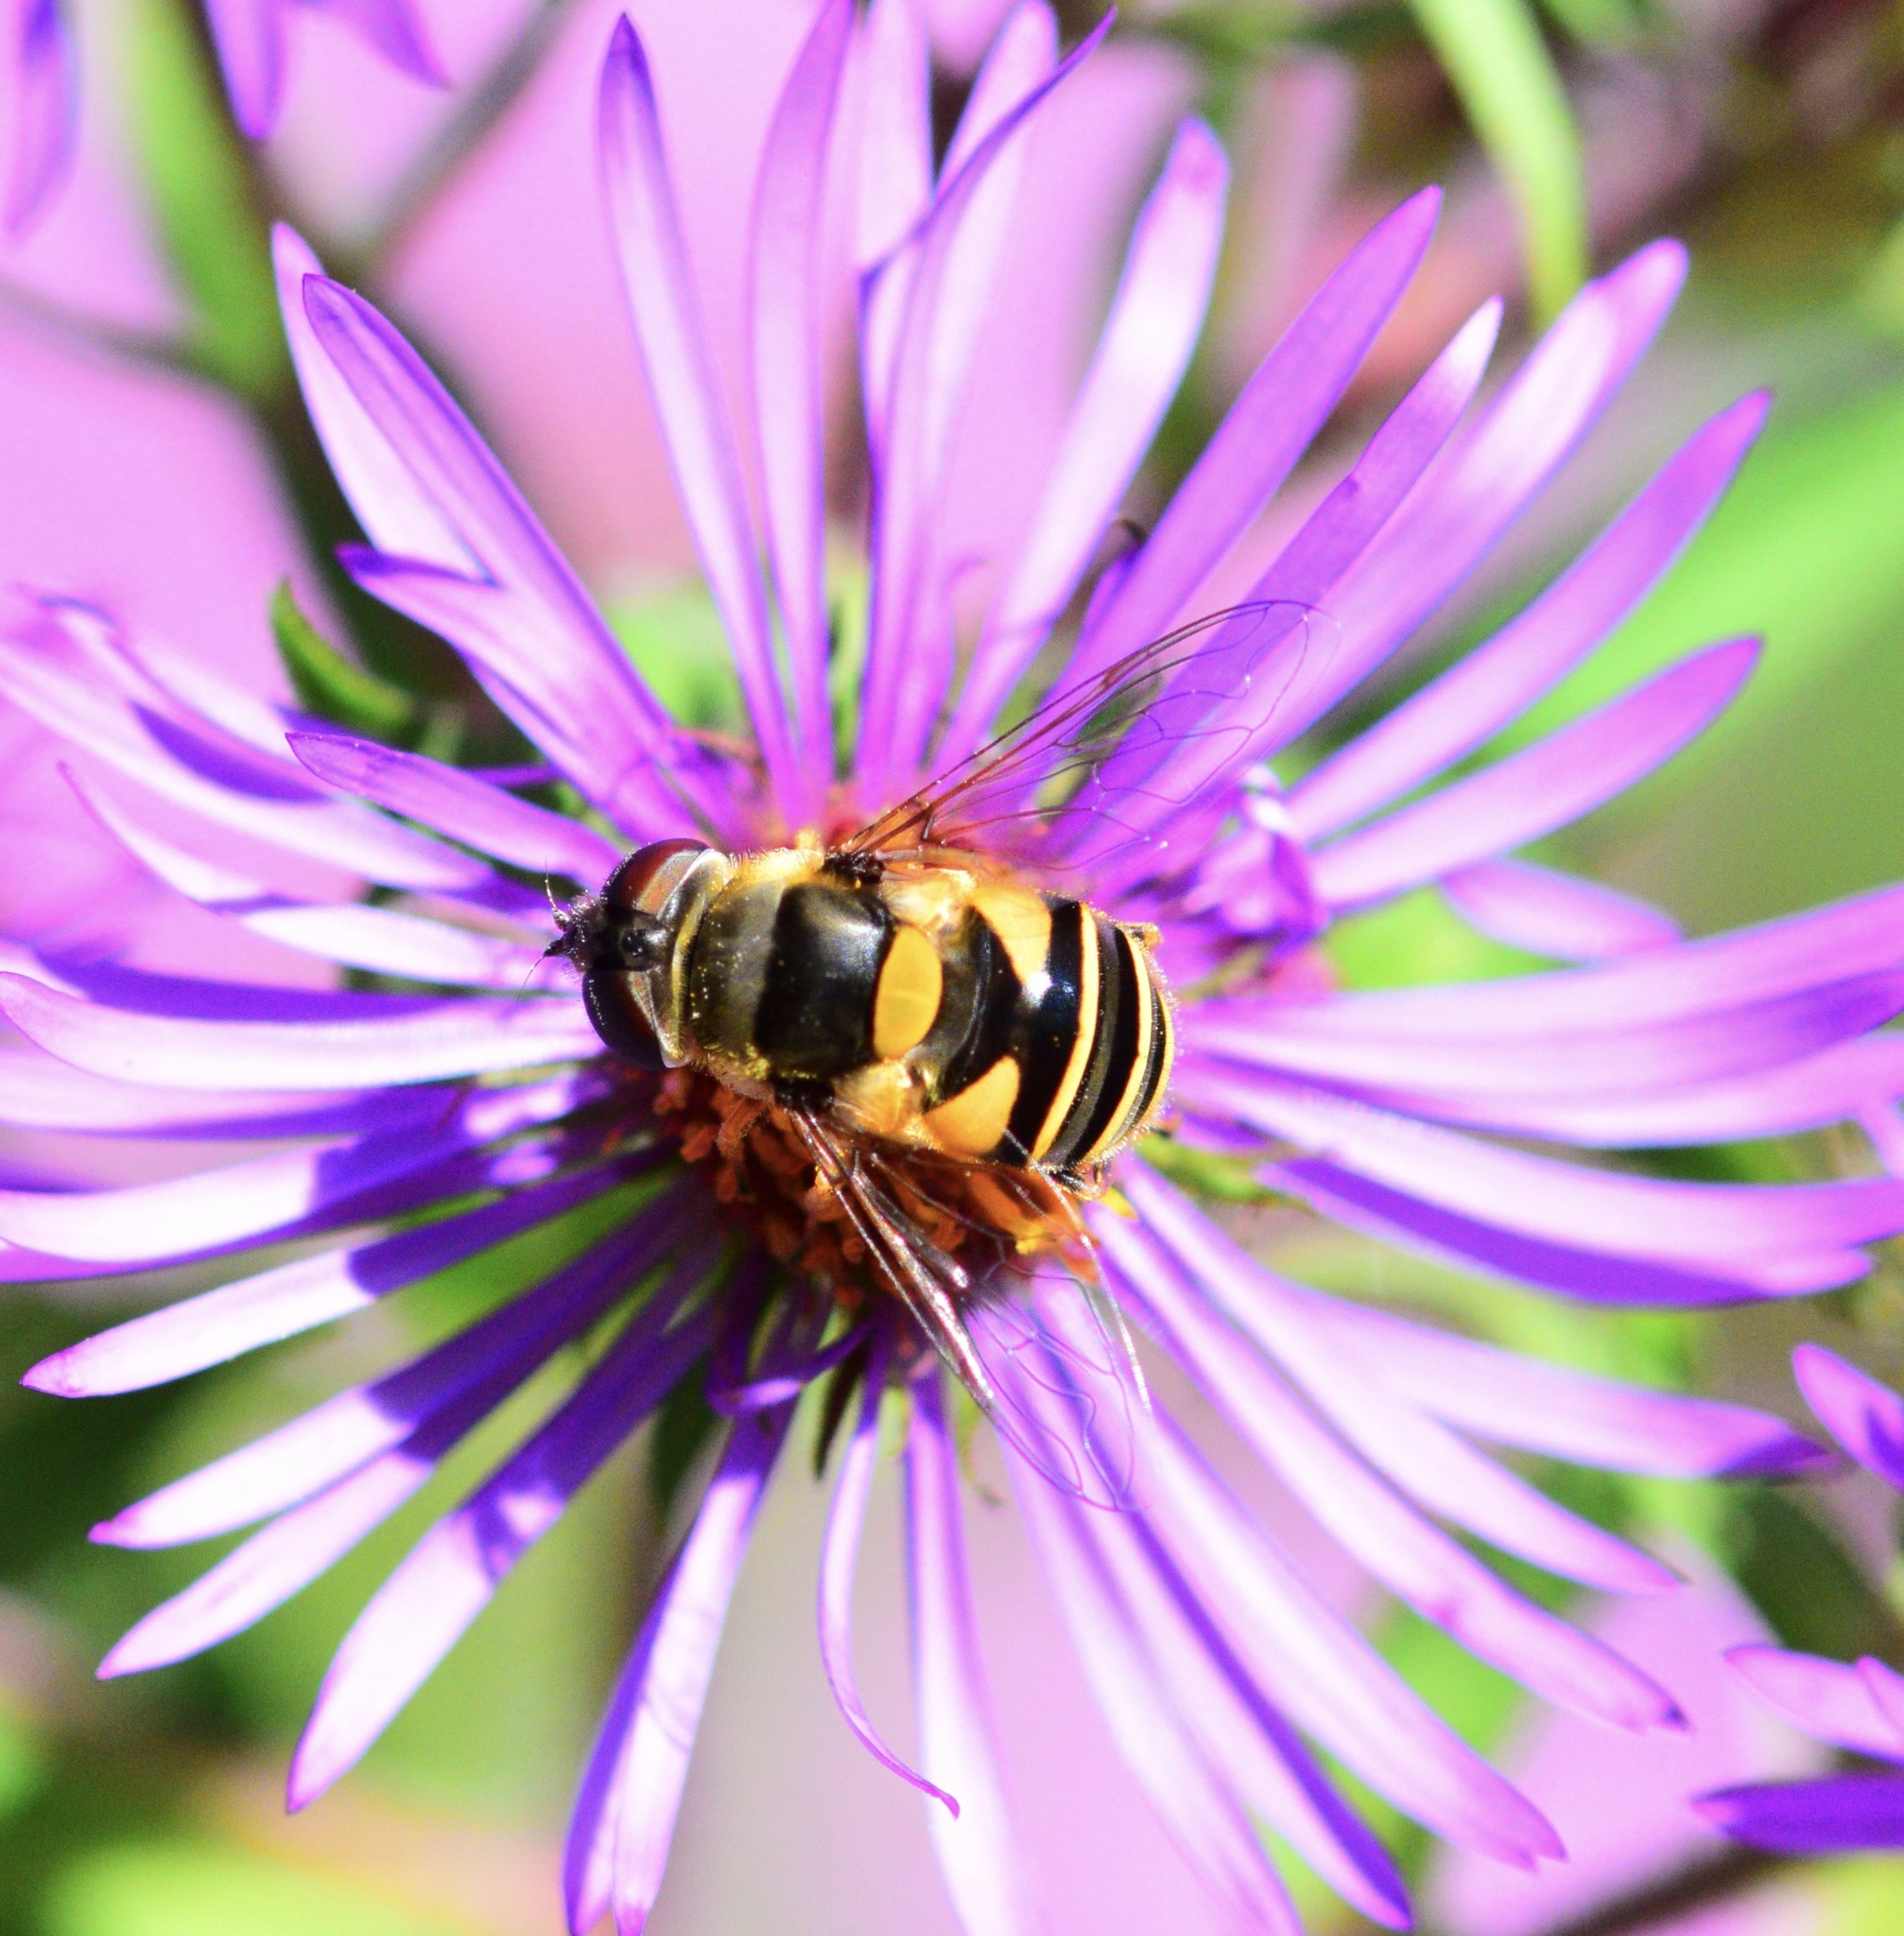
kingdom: Animalia
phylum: Arthropoda
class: Insecta
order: Diptera
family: Syrphidae
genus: Eristalis
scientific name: Eristalis transversa
